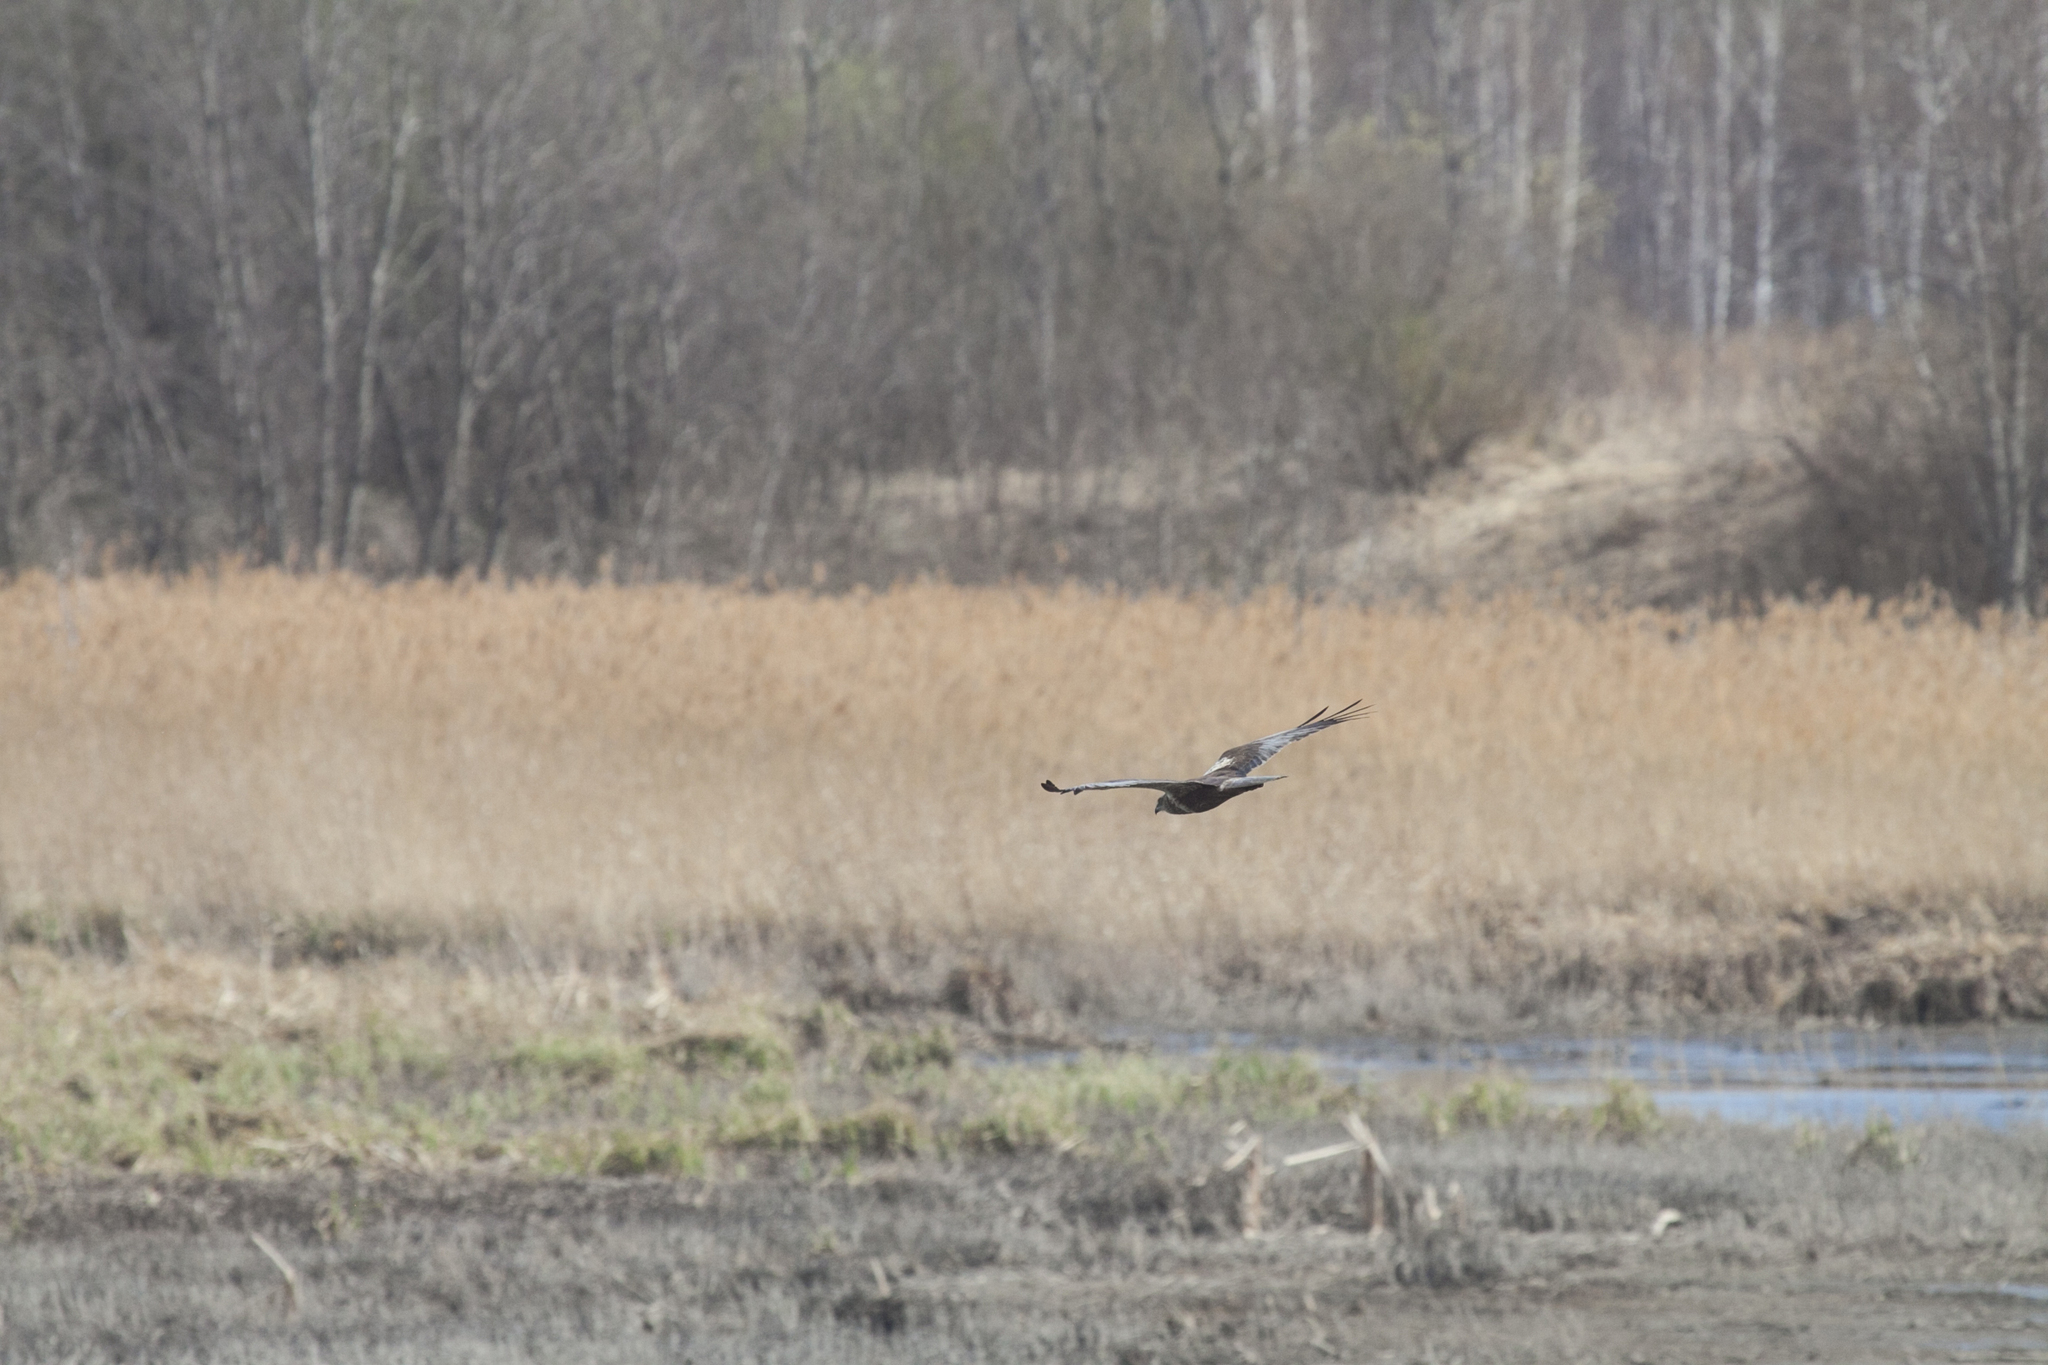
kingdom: Animalia
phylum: Chordata
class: Aves
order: Accipitriformes
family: Accipitridae
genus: Circus
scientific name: Circus aeruginosus
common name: Western marsh harrier
